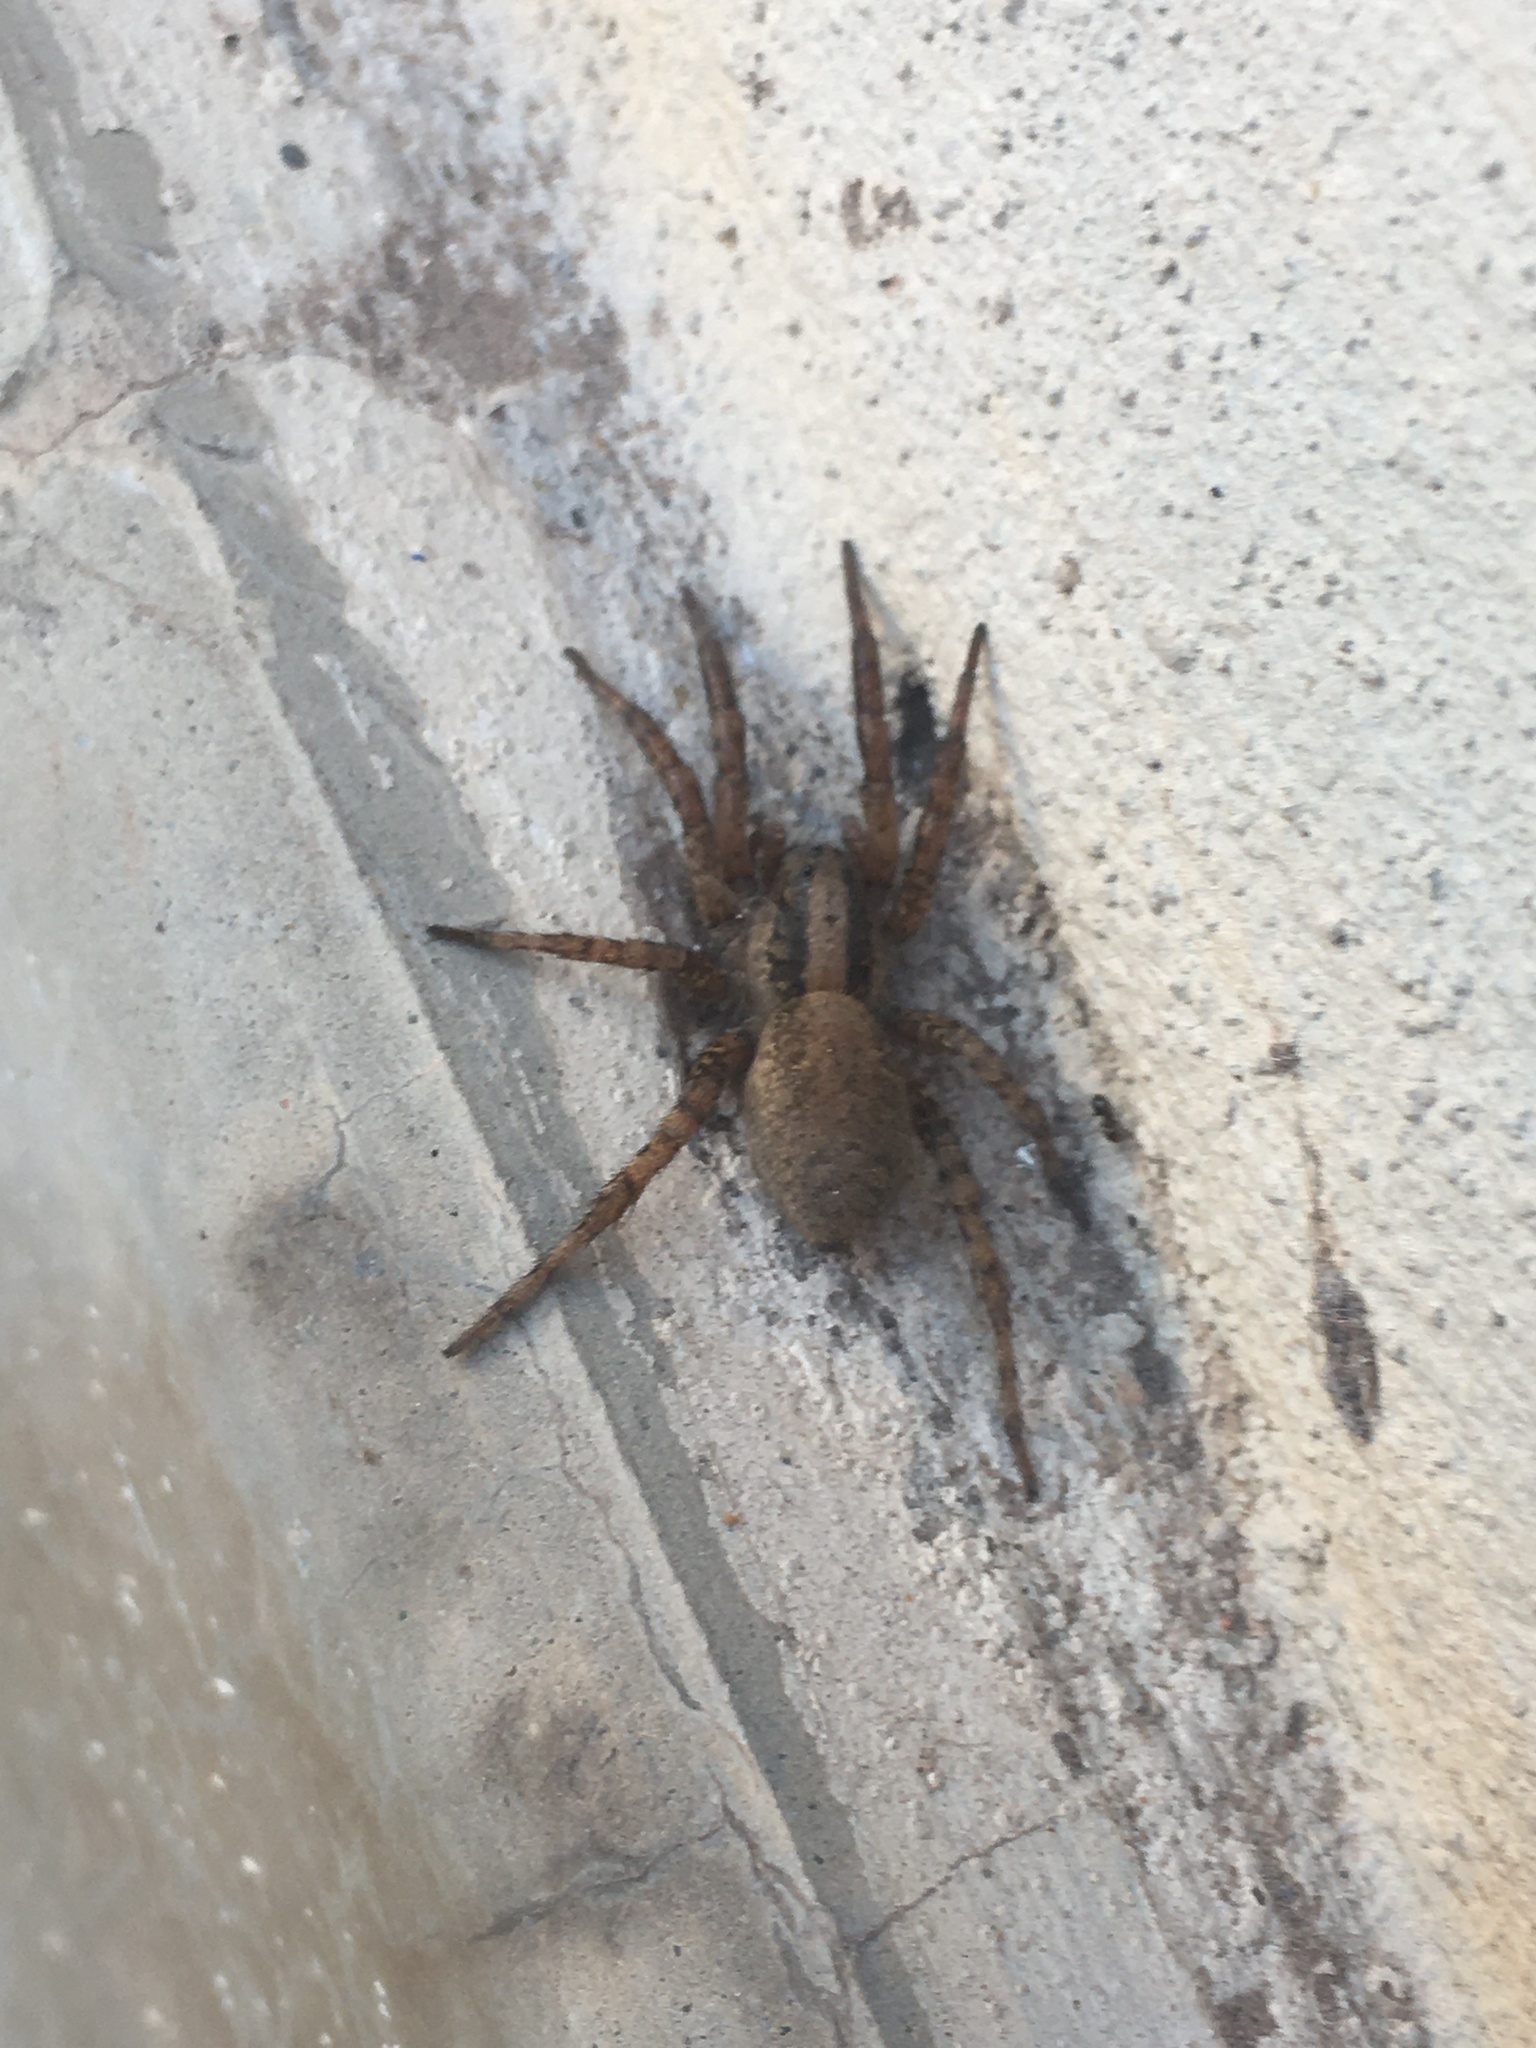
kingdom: Animalia
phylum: Arthropoda
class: Arachnida
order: Araneae
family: Lycosidae
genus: Birabenia
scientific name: Birabenia birabenae
